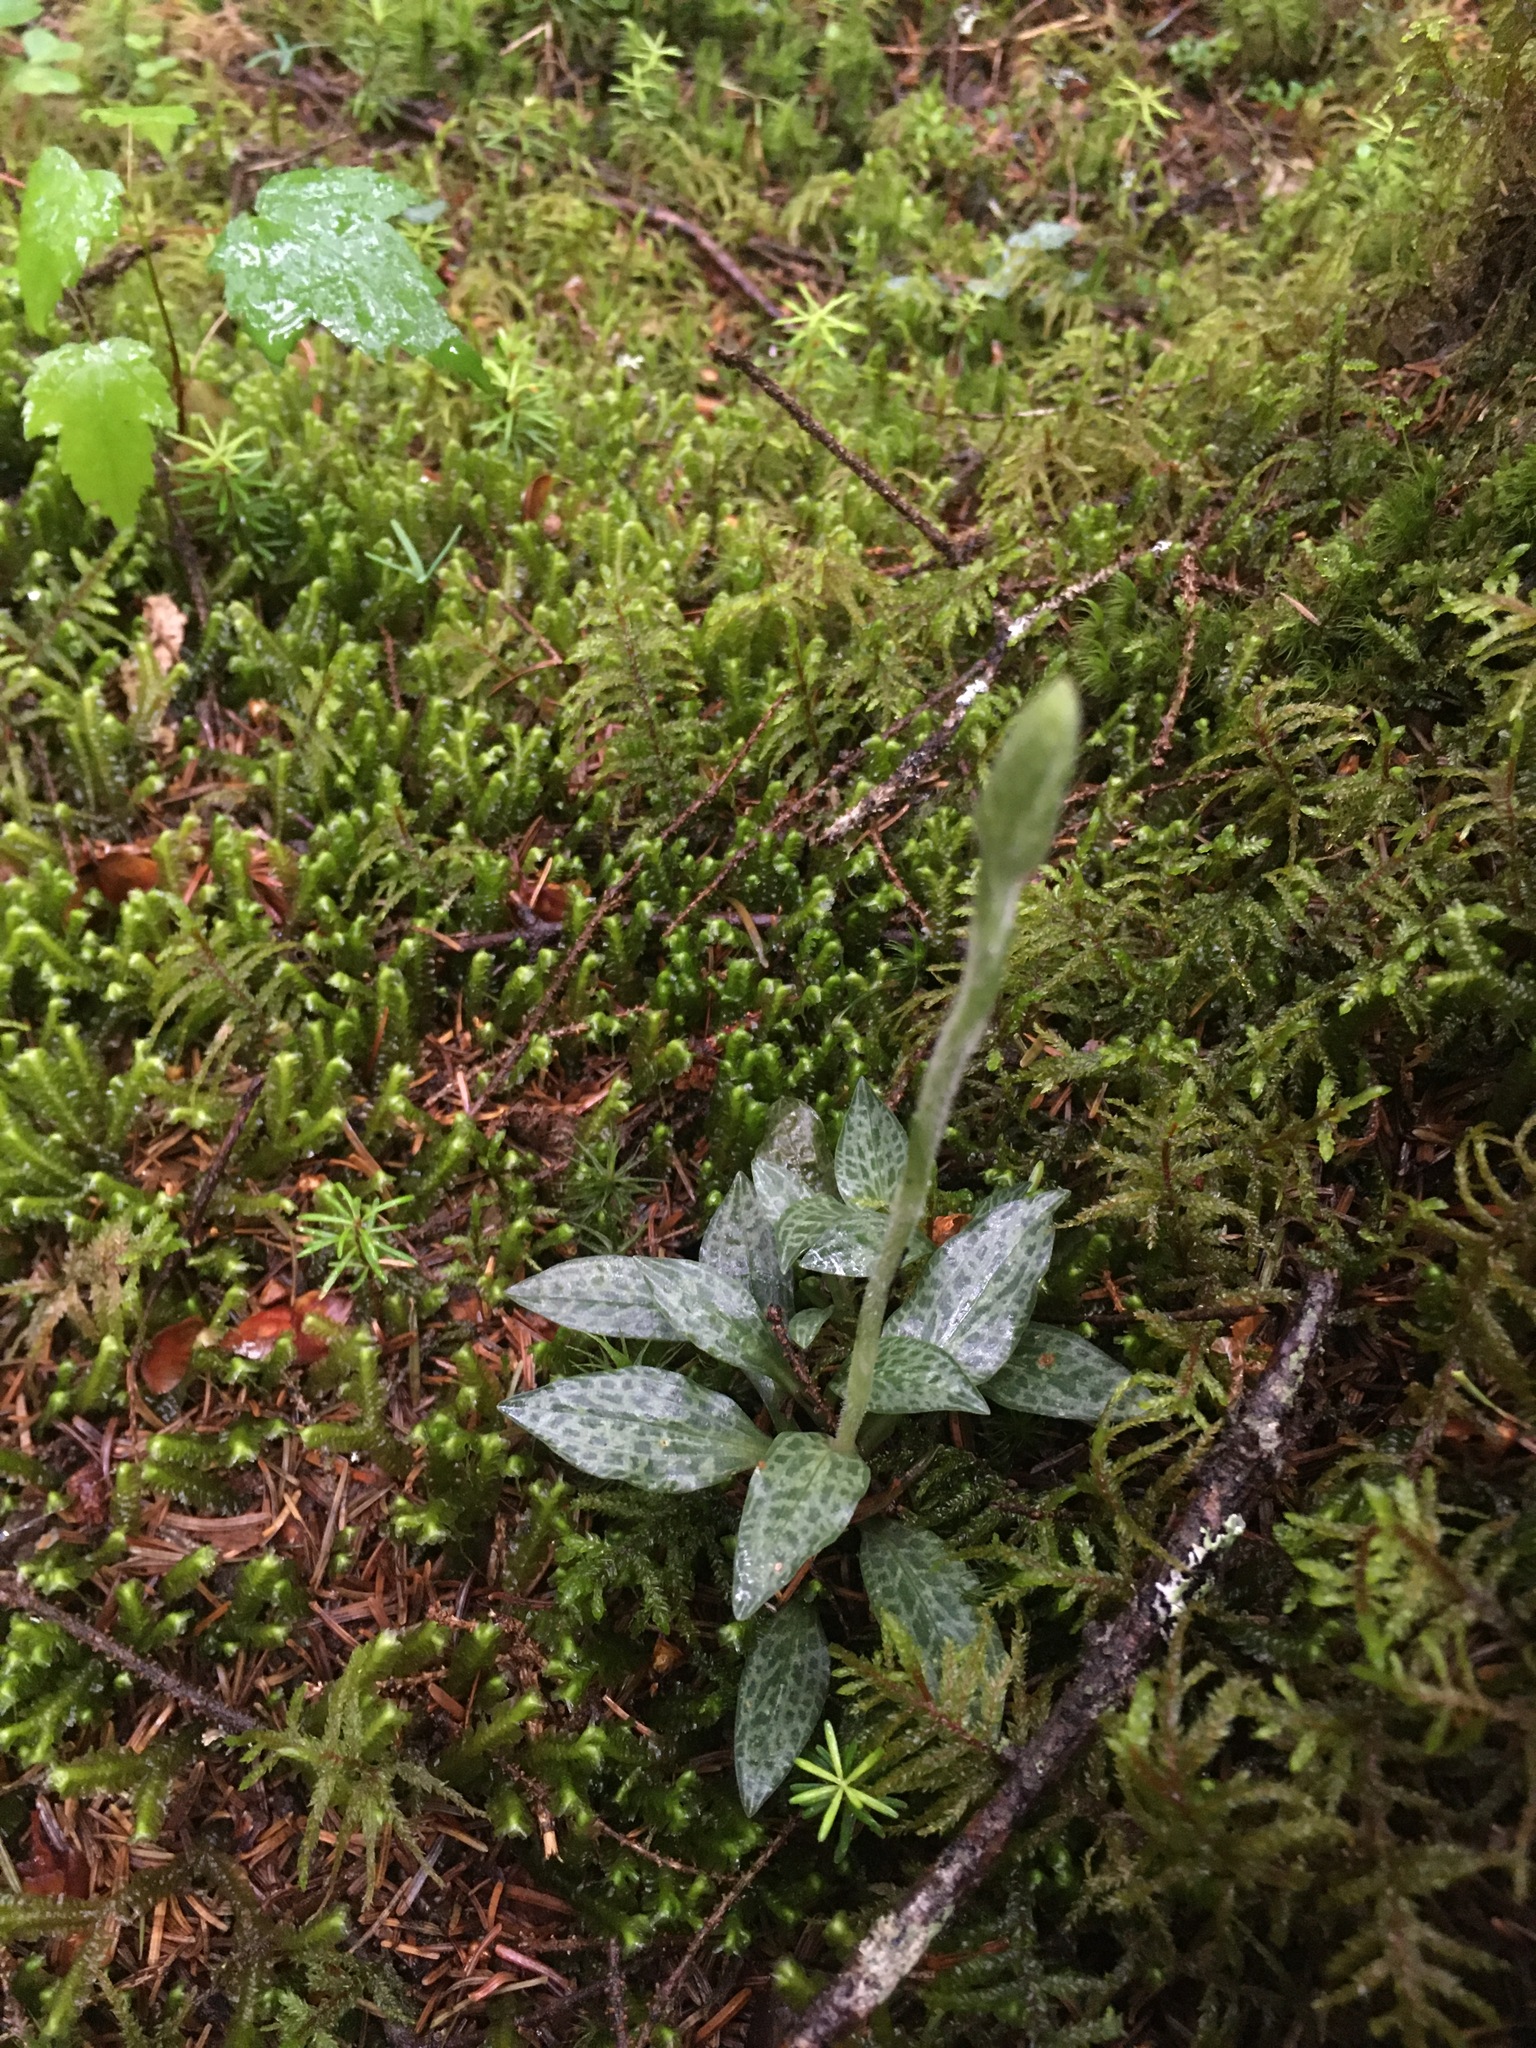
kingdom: Plantae
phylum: Tracheophyta
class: Liliopsida
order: Asparagales
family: Orchidaceae
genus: Goodyera
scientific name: Goodyera tesselata
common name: Checkered rattlesnake-plantain
